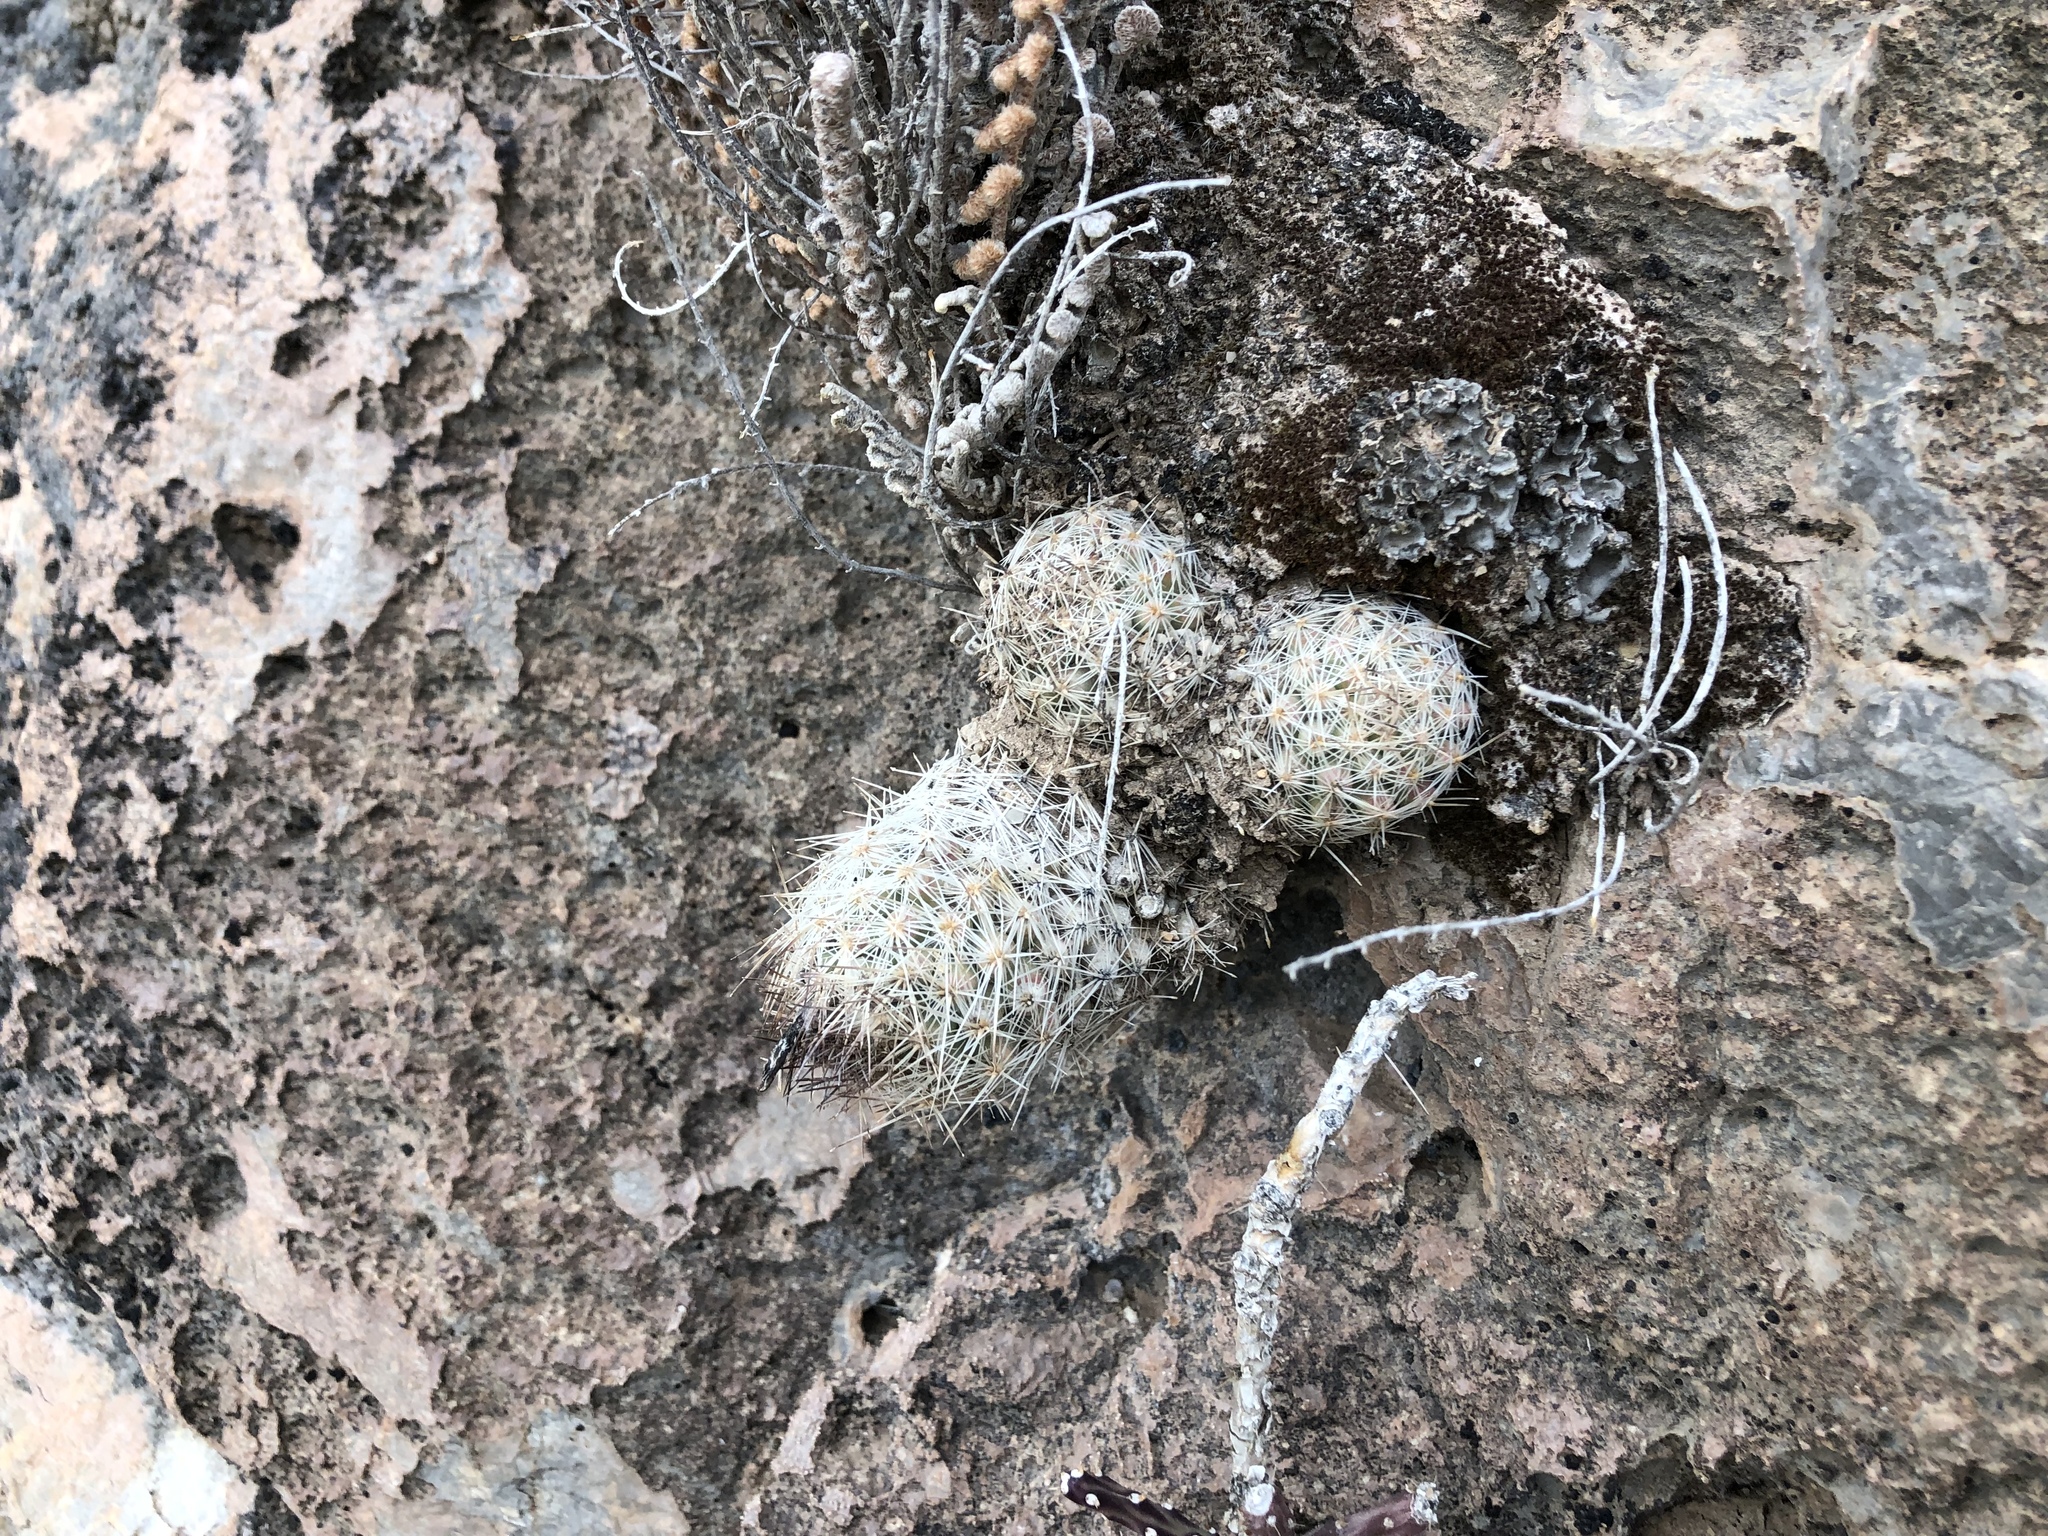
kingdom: Plantae
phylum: Tracheophyta
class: Magnoliopsida
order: Caryophyllales
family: Cactaceae
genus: Pelecyphora
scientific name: Pelecyphora tuberculosa
